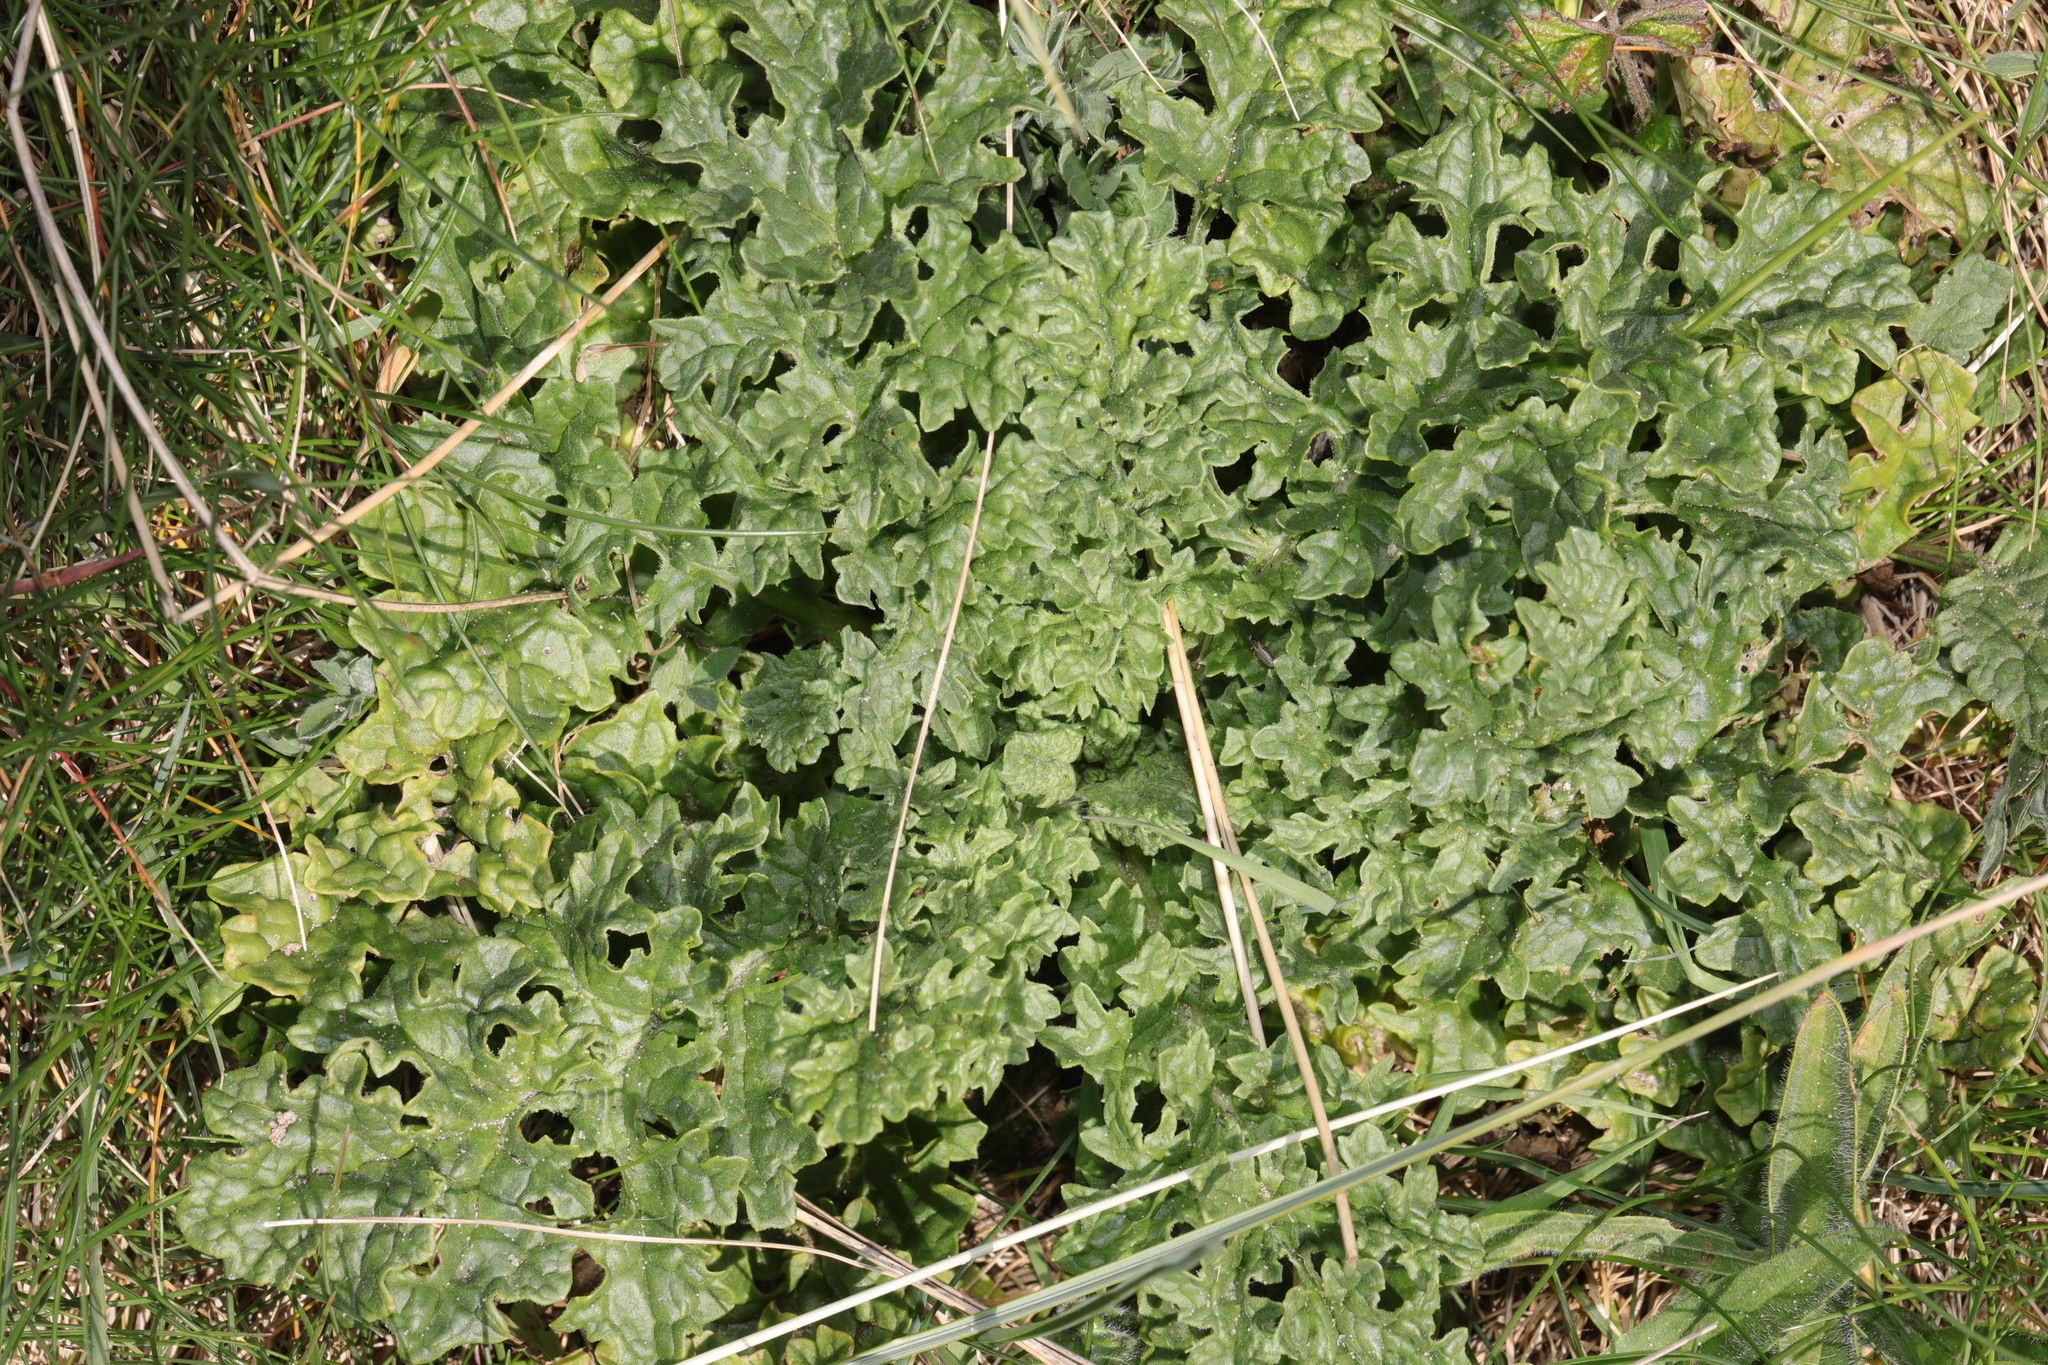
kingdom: Plantae
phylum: Tracheophyta
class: Magnoliopsida
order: Asterales
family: Asteraceae
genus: Jacobaea
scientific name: Jacobaea vulgaris
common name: Stinking willie
